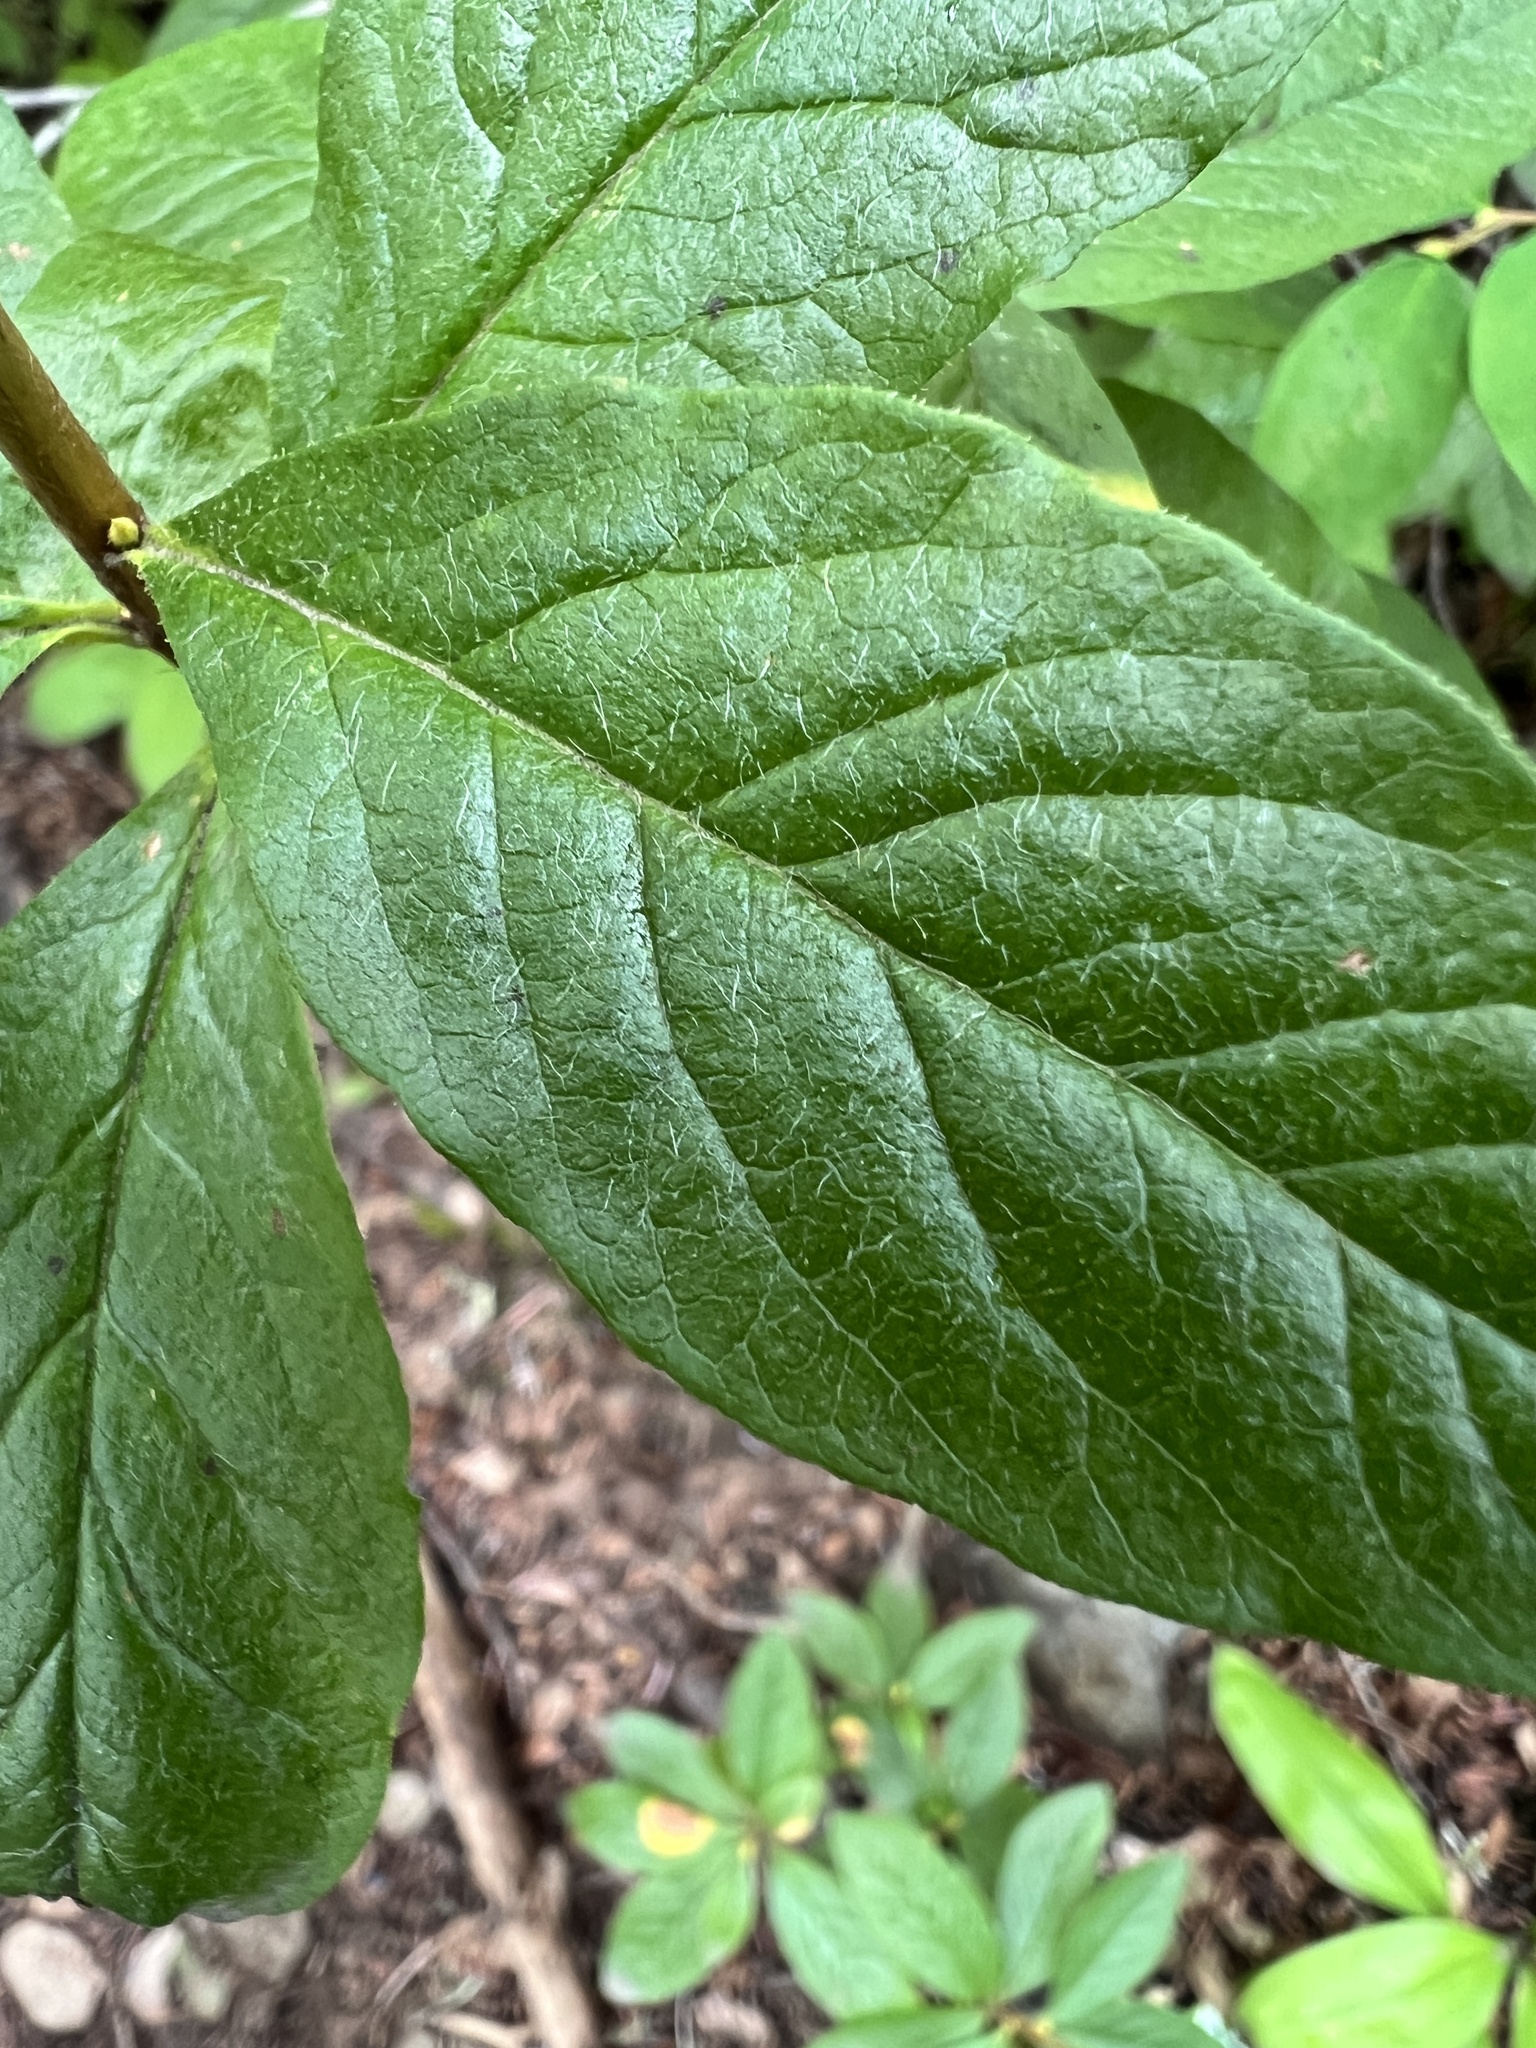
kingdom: Plantae
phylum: Tracheophyta
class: Magnoliopsida
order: Ericales
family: Ericaceae
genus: Rhododendron
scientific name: Rhododendron albiflorum
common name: White rhododendron
